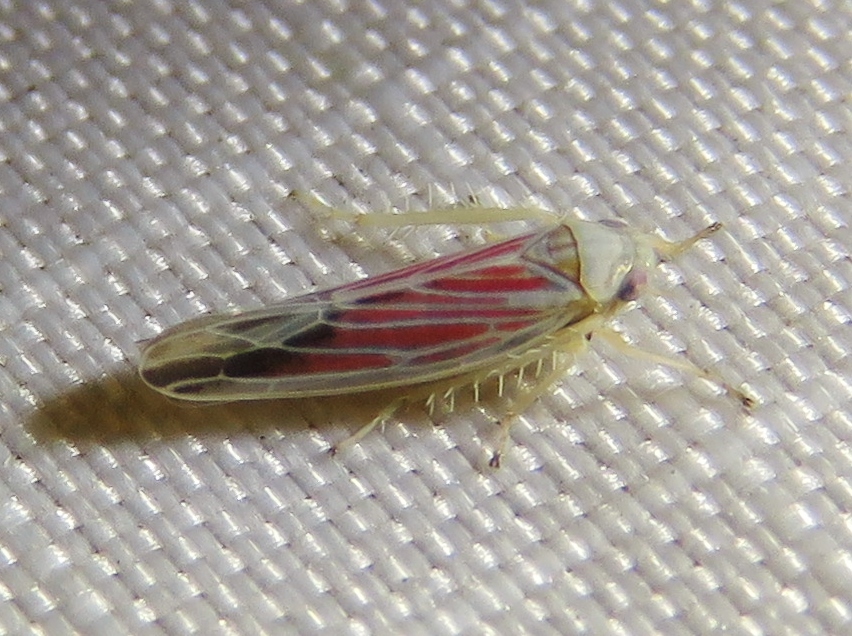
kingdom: Animalia
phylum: Arthropoda
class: Insecta
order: Hemiptera
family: Cicadellidae
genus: Balclutha
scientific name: Balclutha rubrostriata
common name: Red-streaked leafhopper
